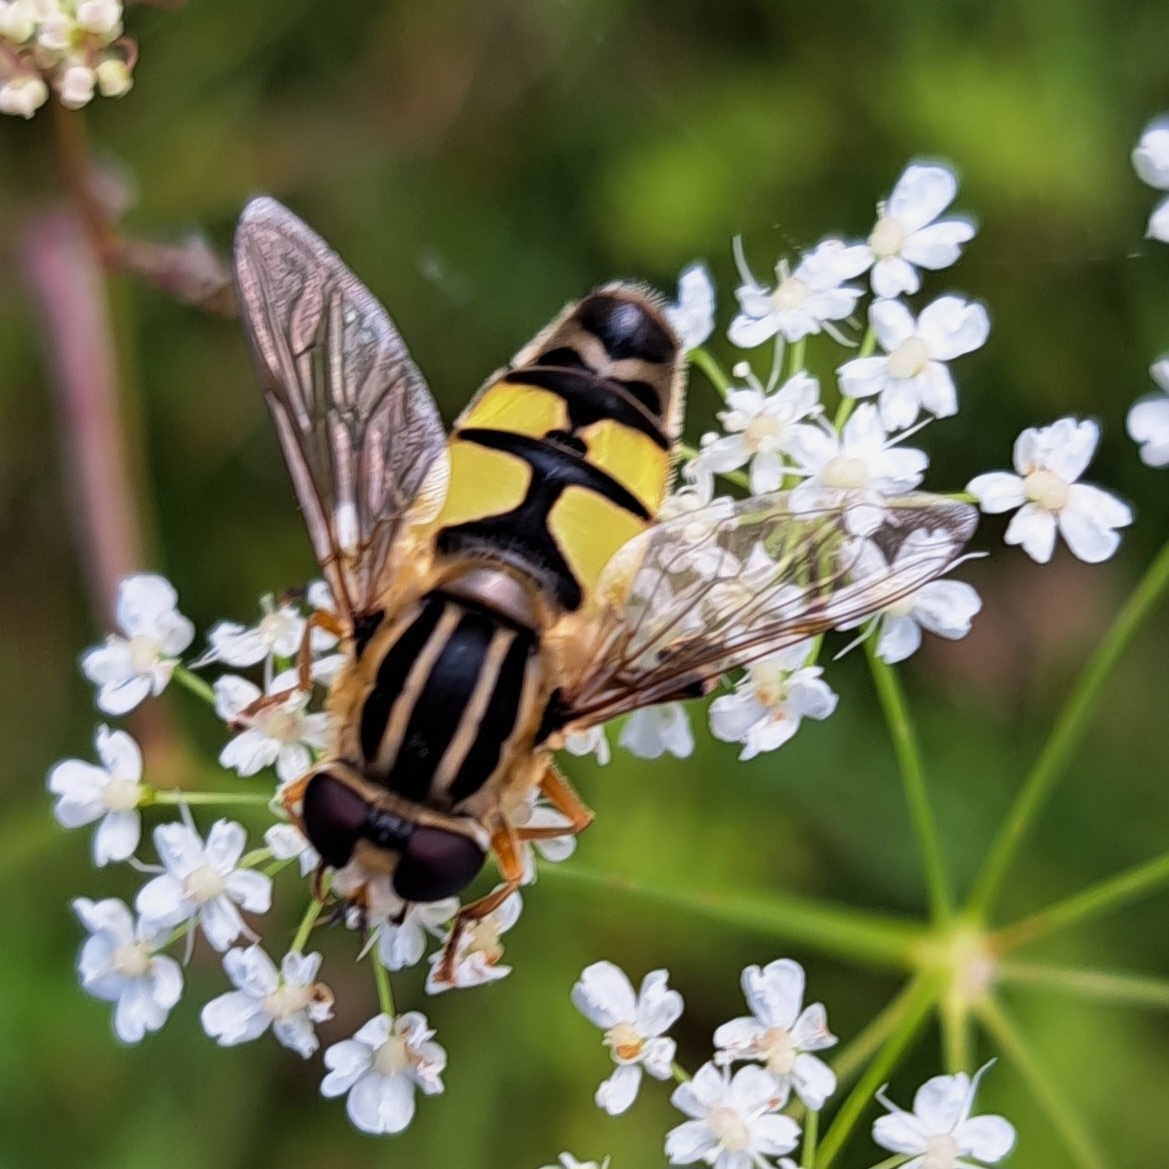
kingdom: Animalia
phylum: Arthropoda
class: Insecta
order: Diptera
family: Syrphidae
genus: Helophilus
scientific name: Helophilus trivittatus
